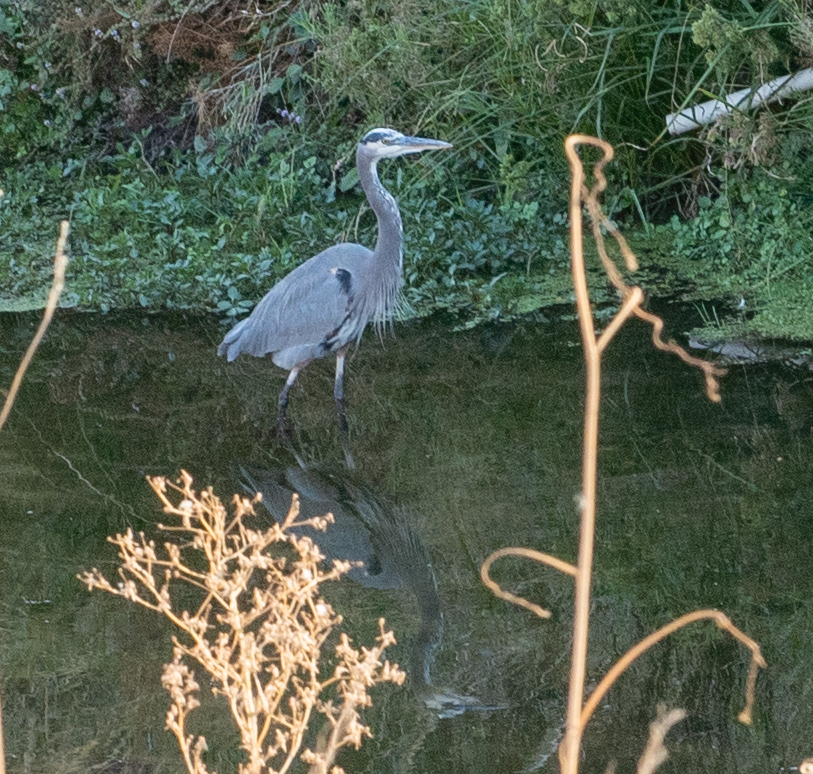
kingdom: Animalia
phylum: Chordata
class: Aves
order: Pelecaniformes
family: Ardeidae
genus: Ardea
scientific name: Ardea herodias
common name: Great blue heron
